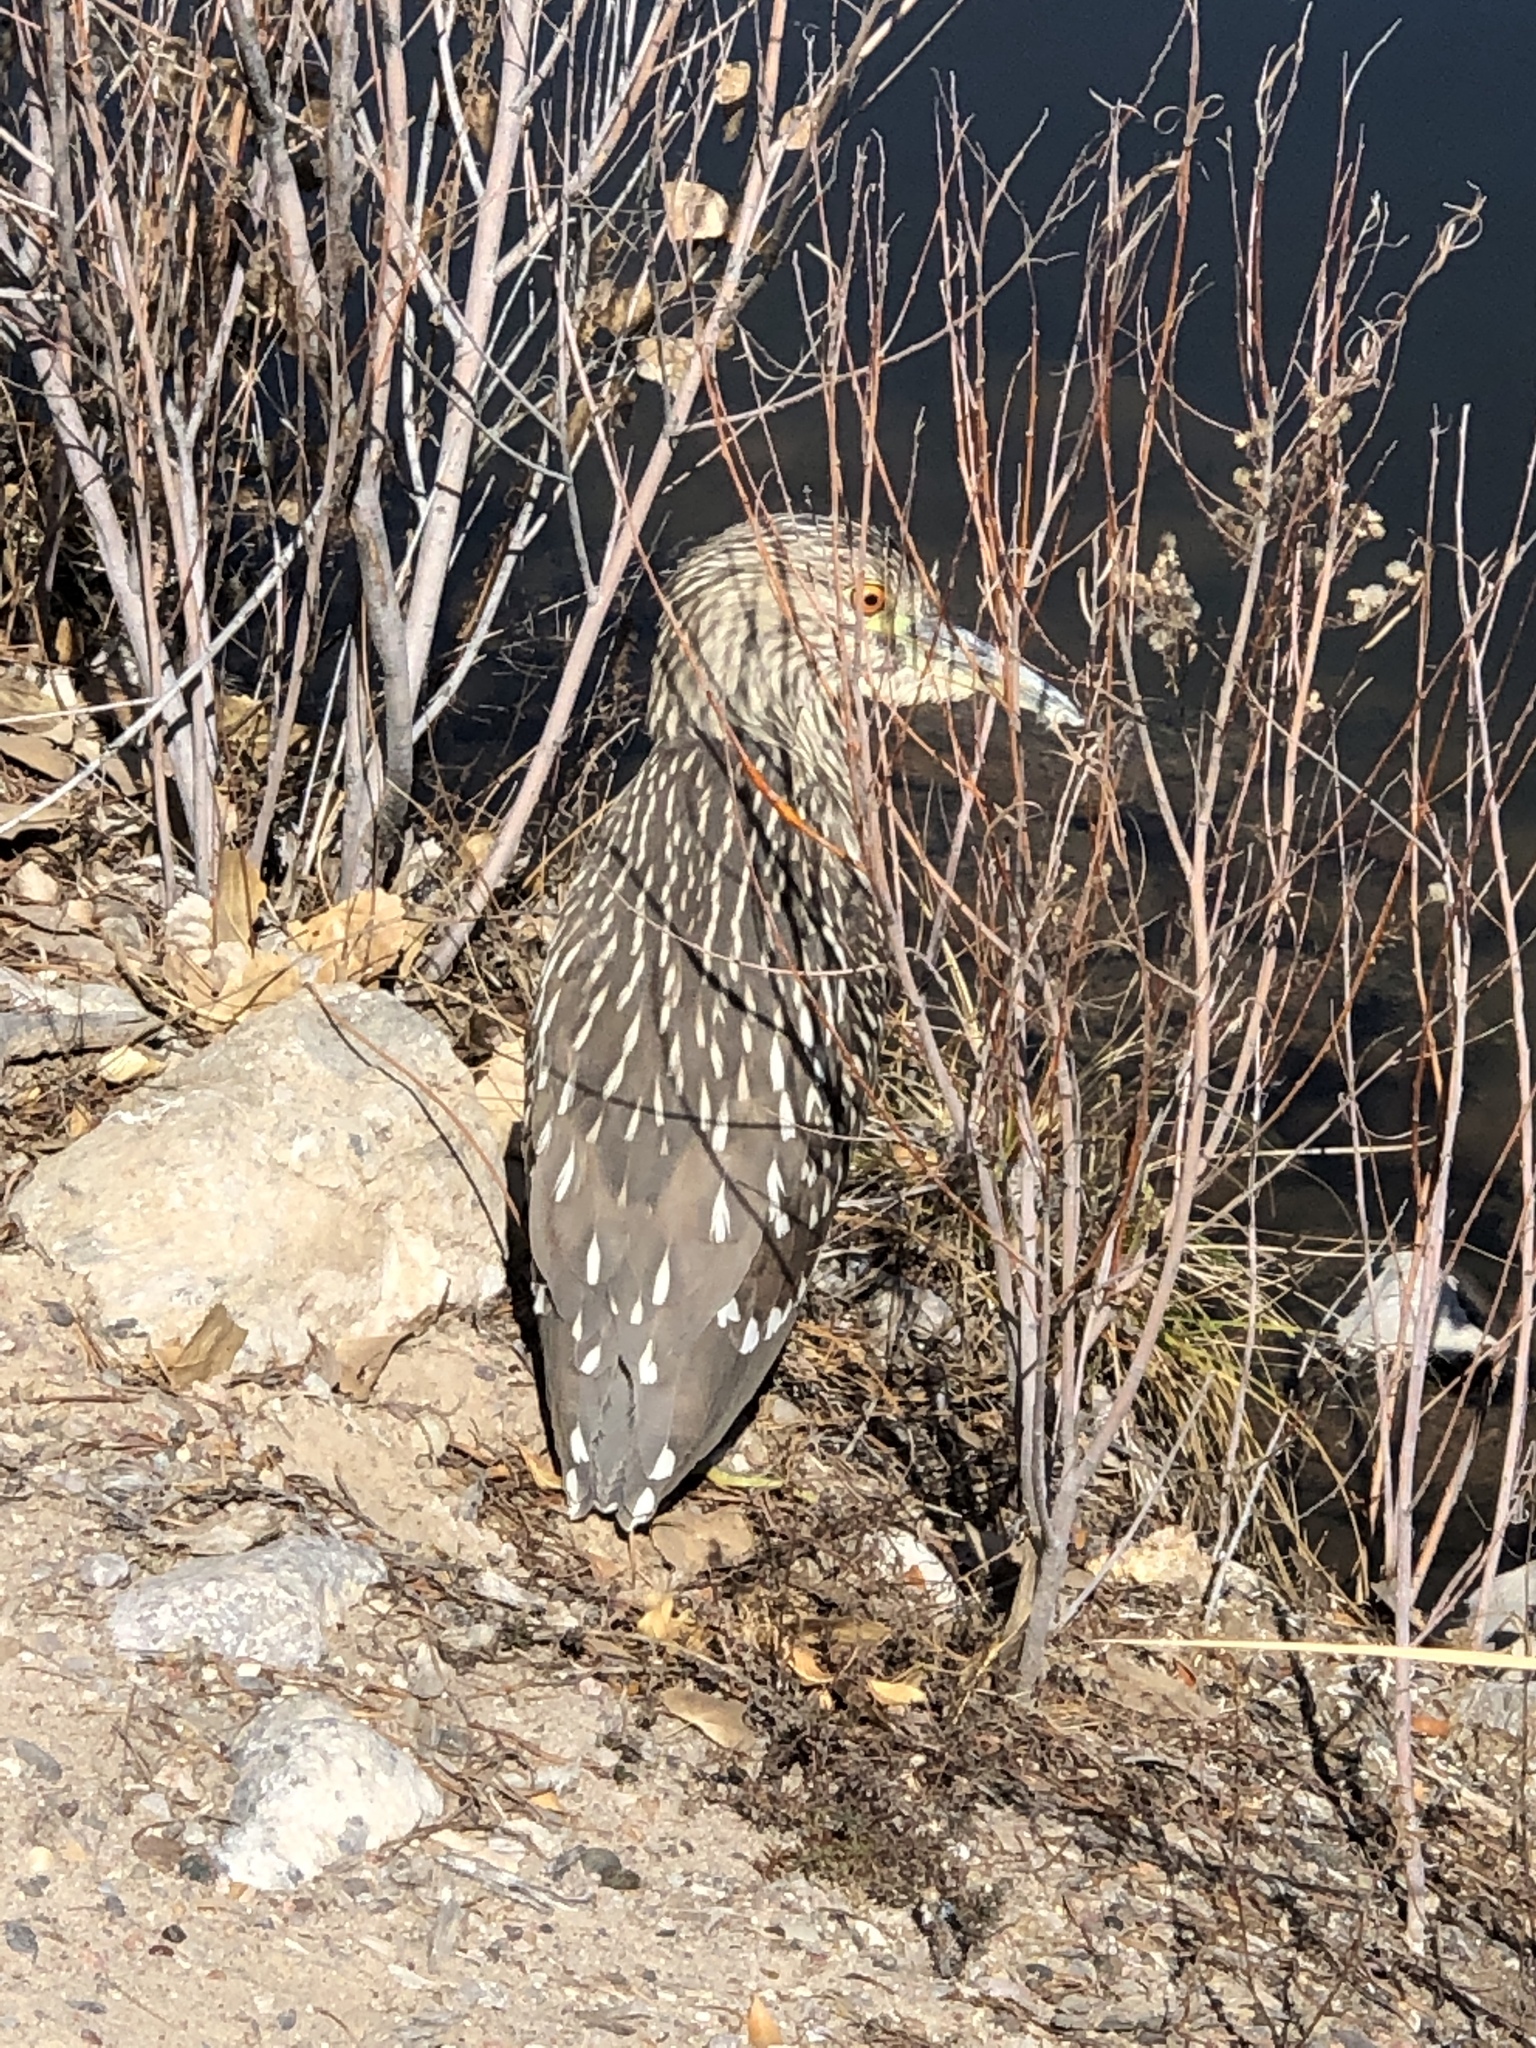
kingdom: Animalia
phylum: Chordata
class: Aves
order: Pelecaniformes
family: Ardeidae
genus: Nycticorax
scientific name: Nycticorax nycticorax
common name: Black-crowned night heron
